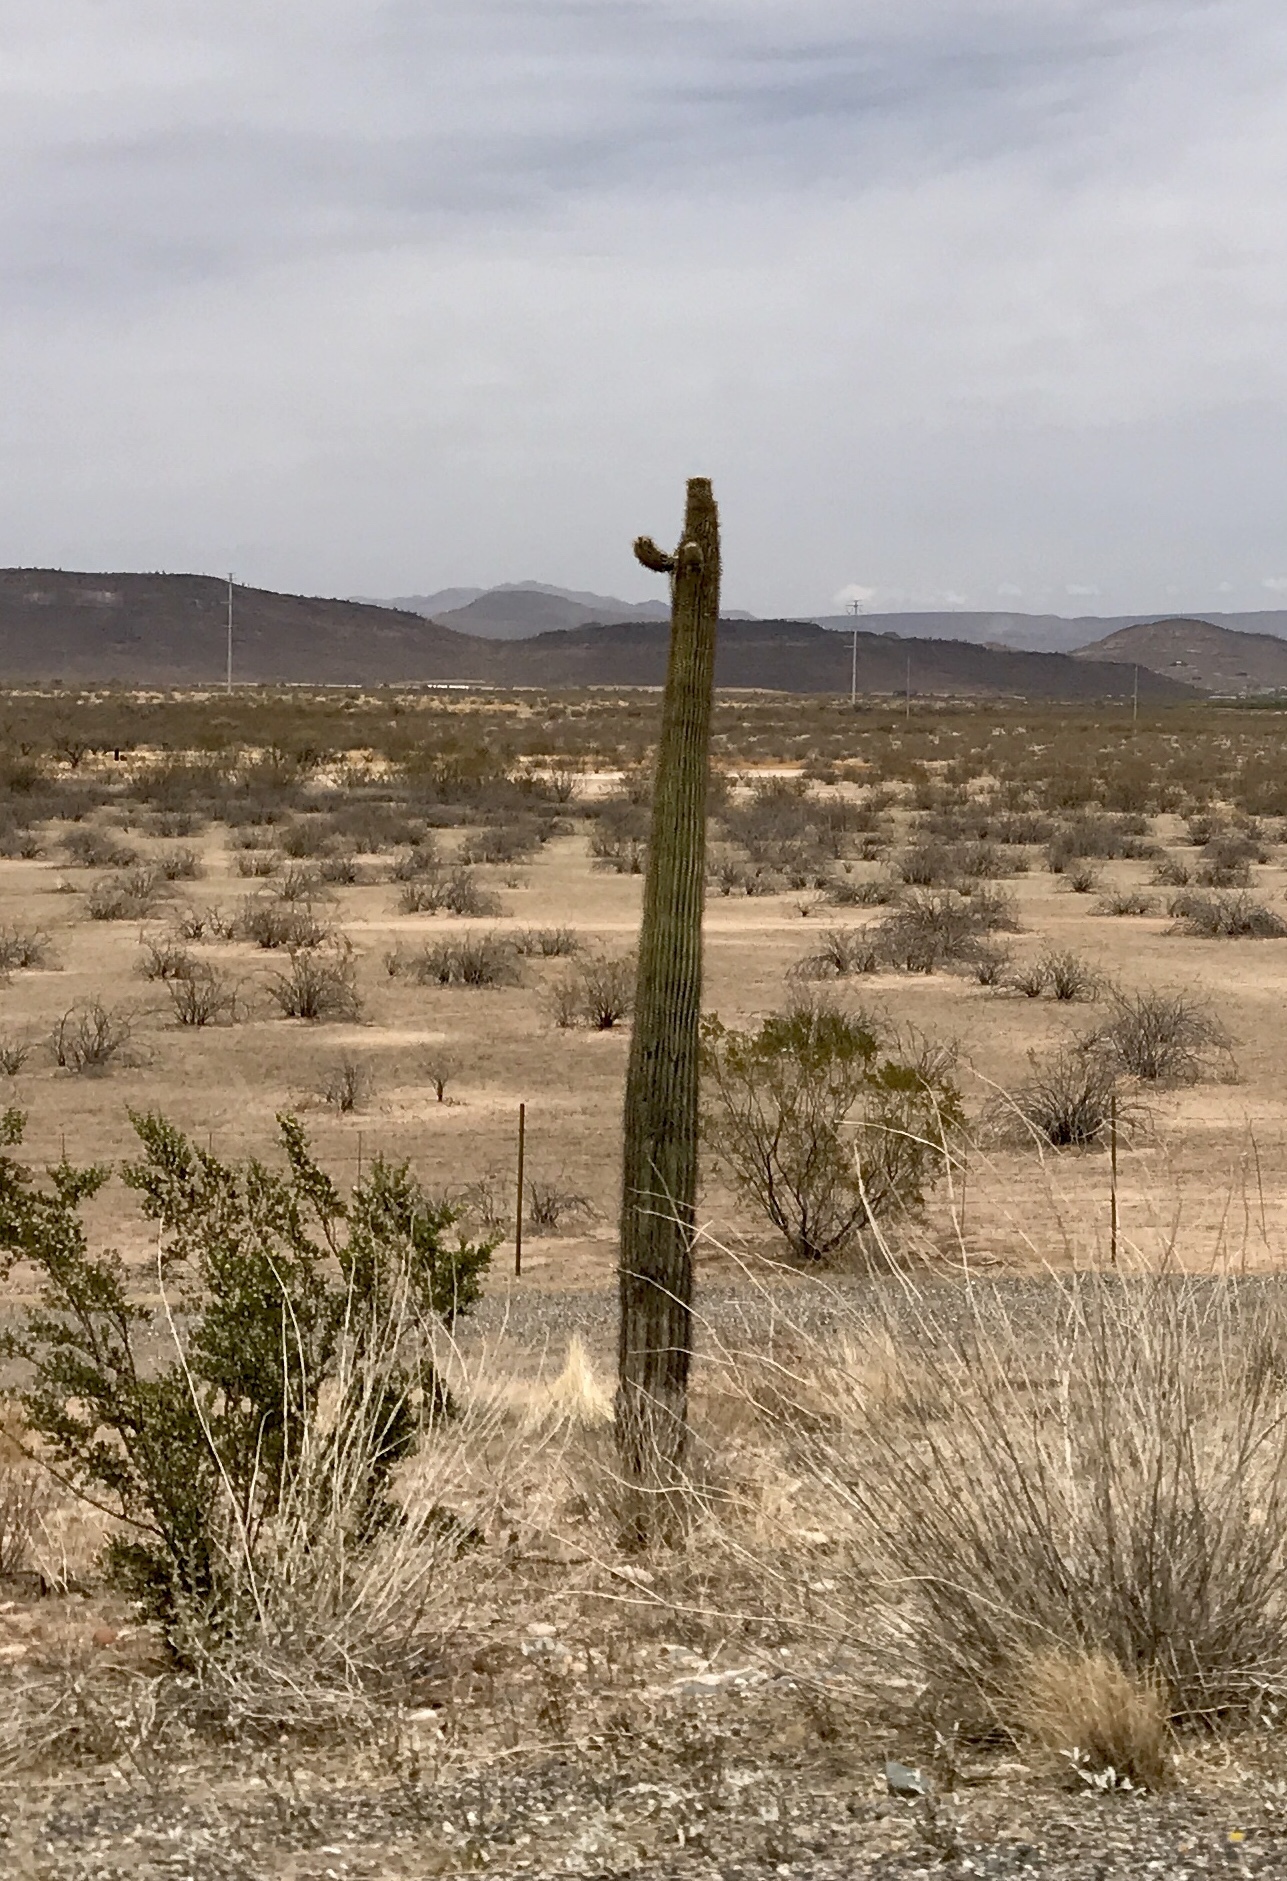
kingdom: Plantae
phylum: Tracheophyta
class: Magnoliopsida
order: Caryophyllales
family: Cactaceae
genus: Carnegiea
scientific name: Carnegiea gigantea
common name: Saguaro
